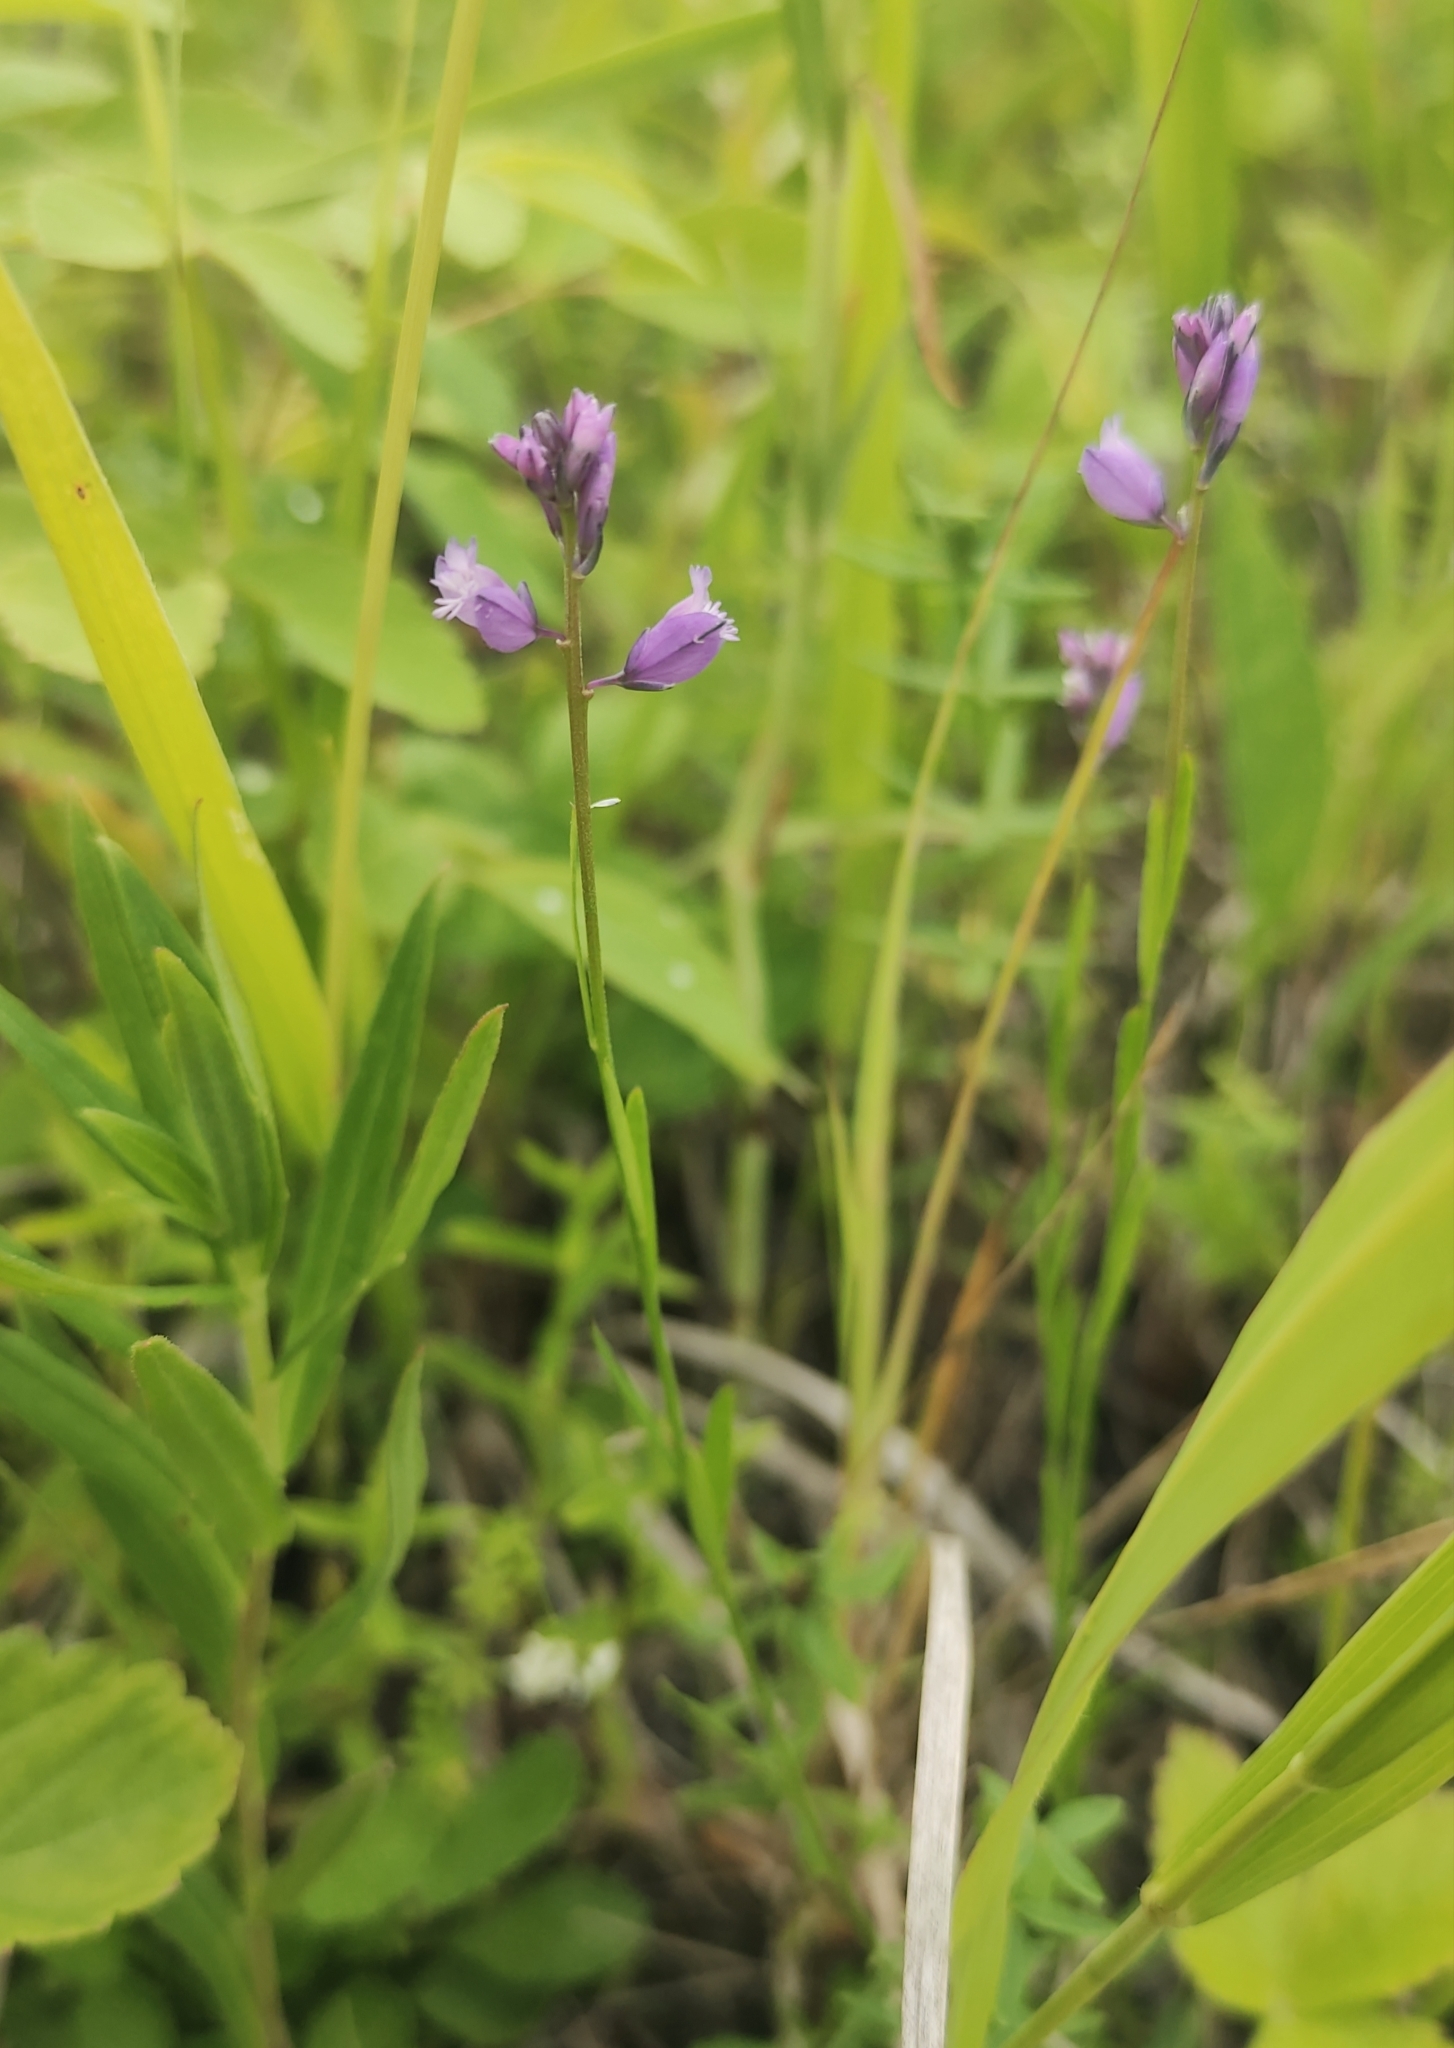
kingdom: Plantae
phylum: Tracheophyta
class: Magnoliopsida
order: Fabales
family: Polygalaceae
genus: Polygala
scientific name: Polygala comosa
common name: Tufted milkwort
